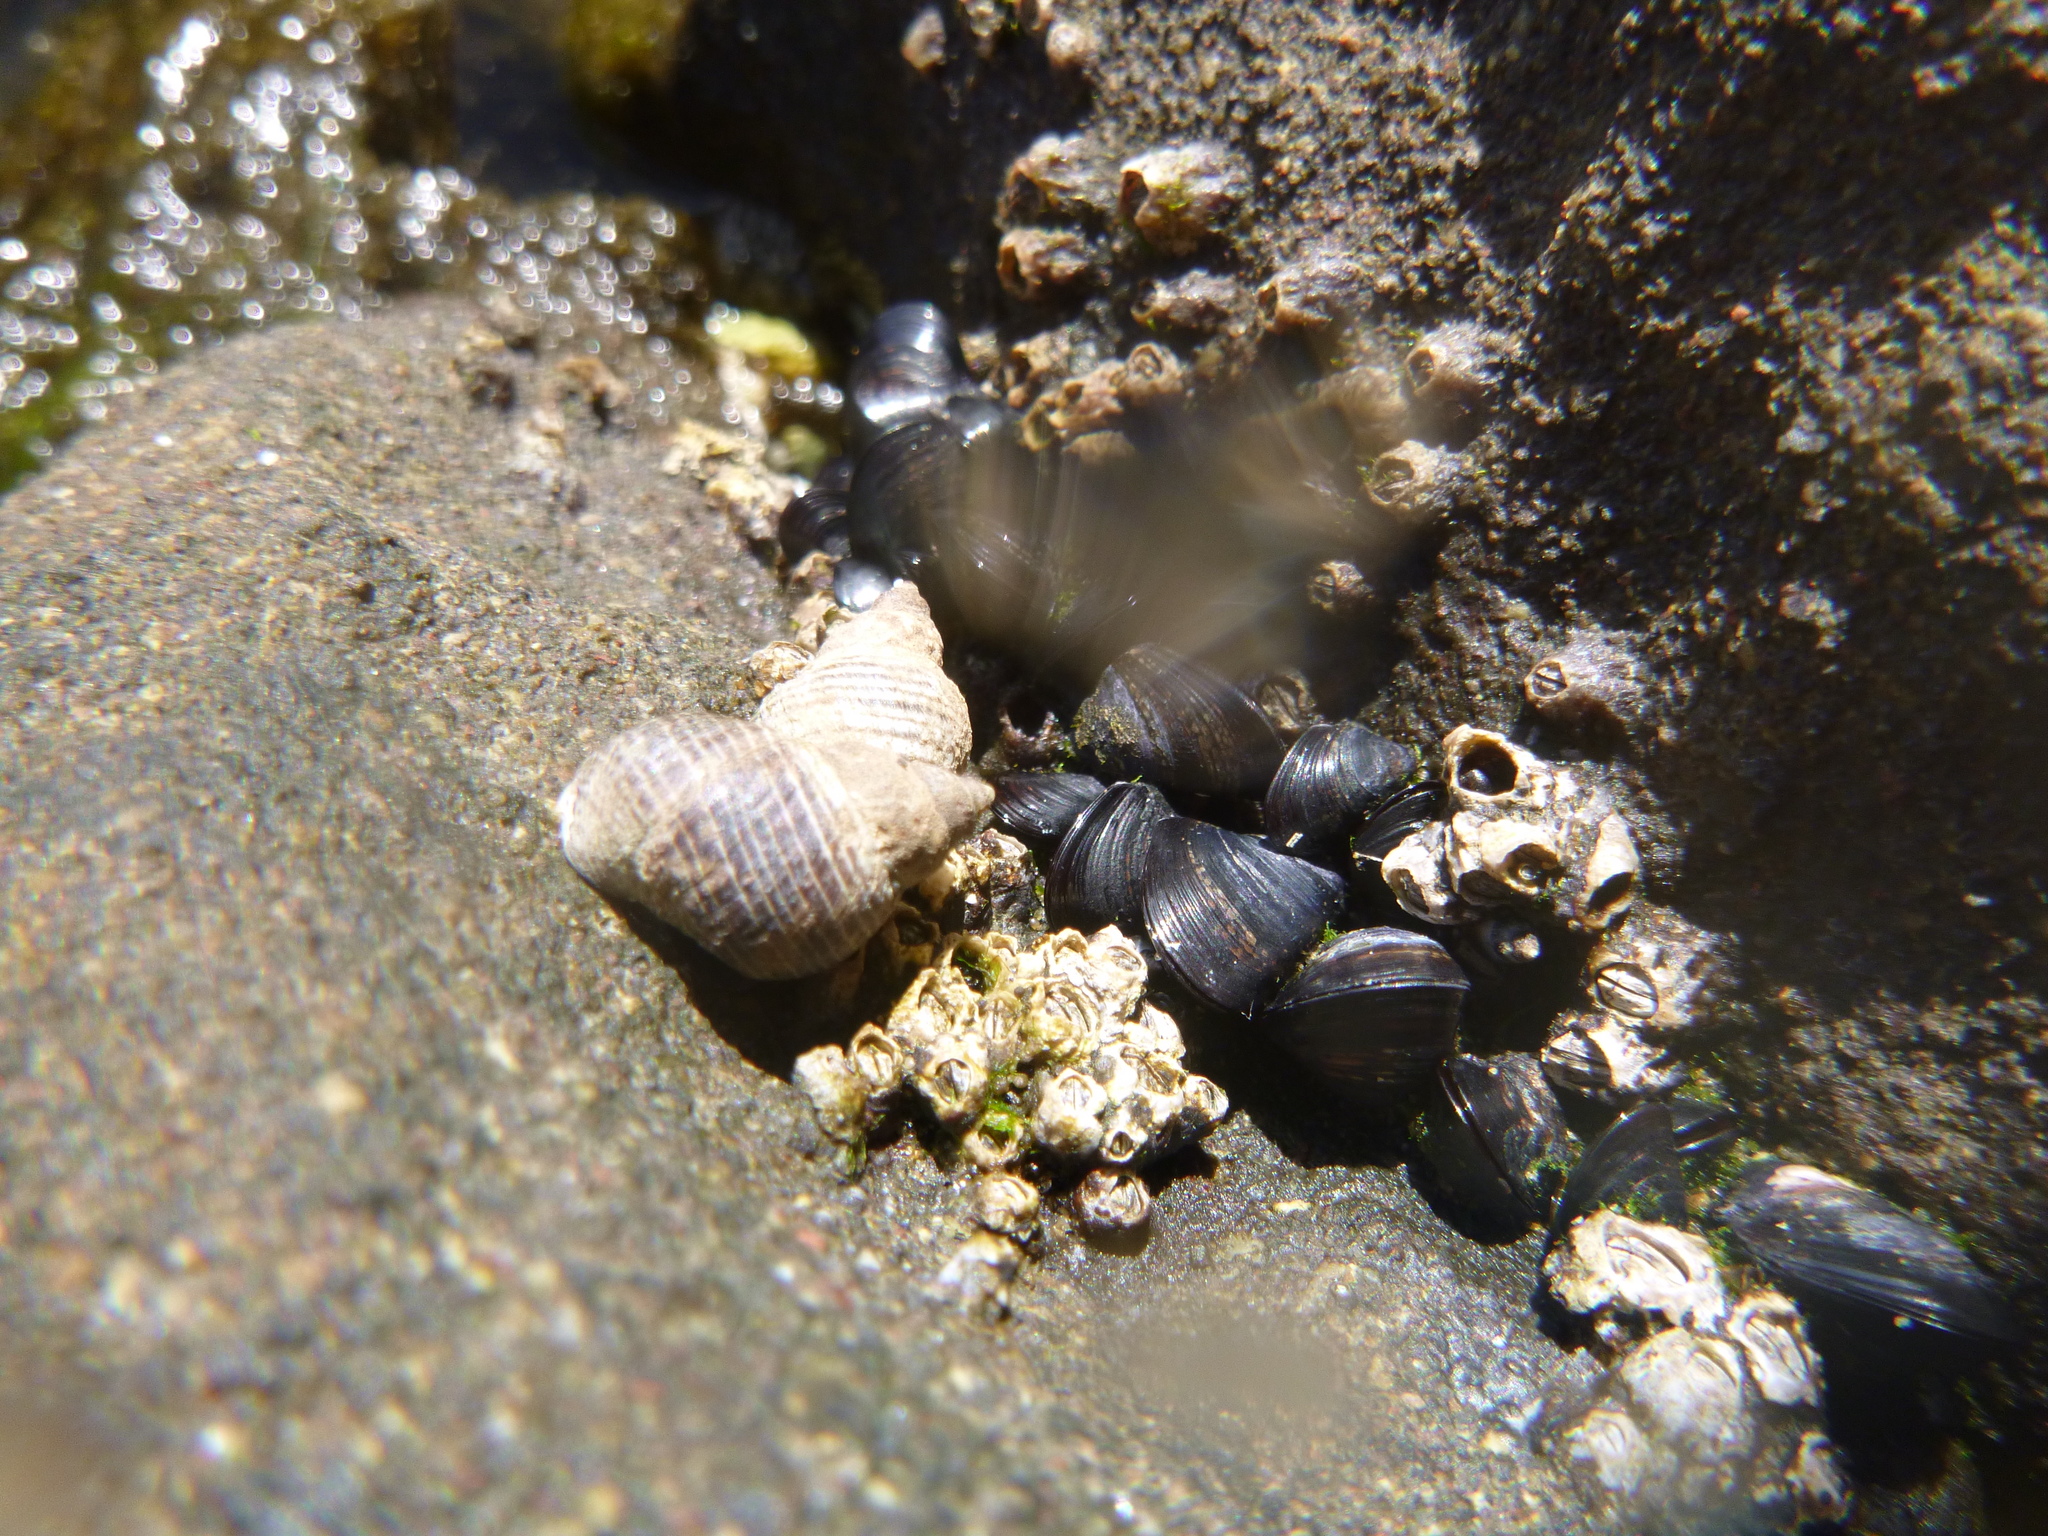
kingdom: Animalia
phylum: Mollusca
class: Gastropoda
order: Littorinimorpha
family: Littorinidae
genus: Austrolittorina
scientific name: Austrolittorina cincta
